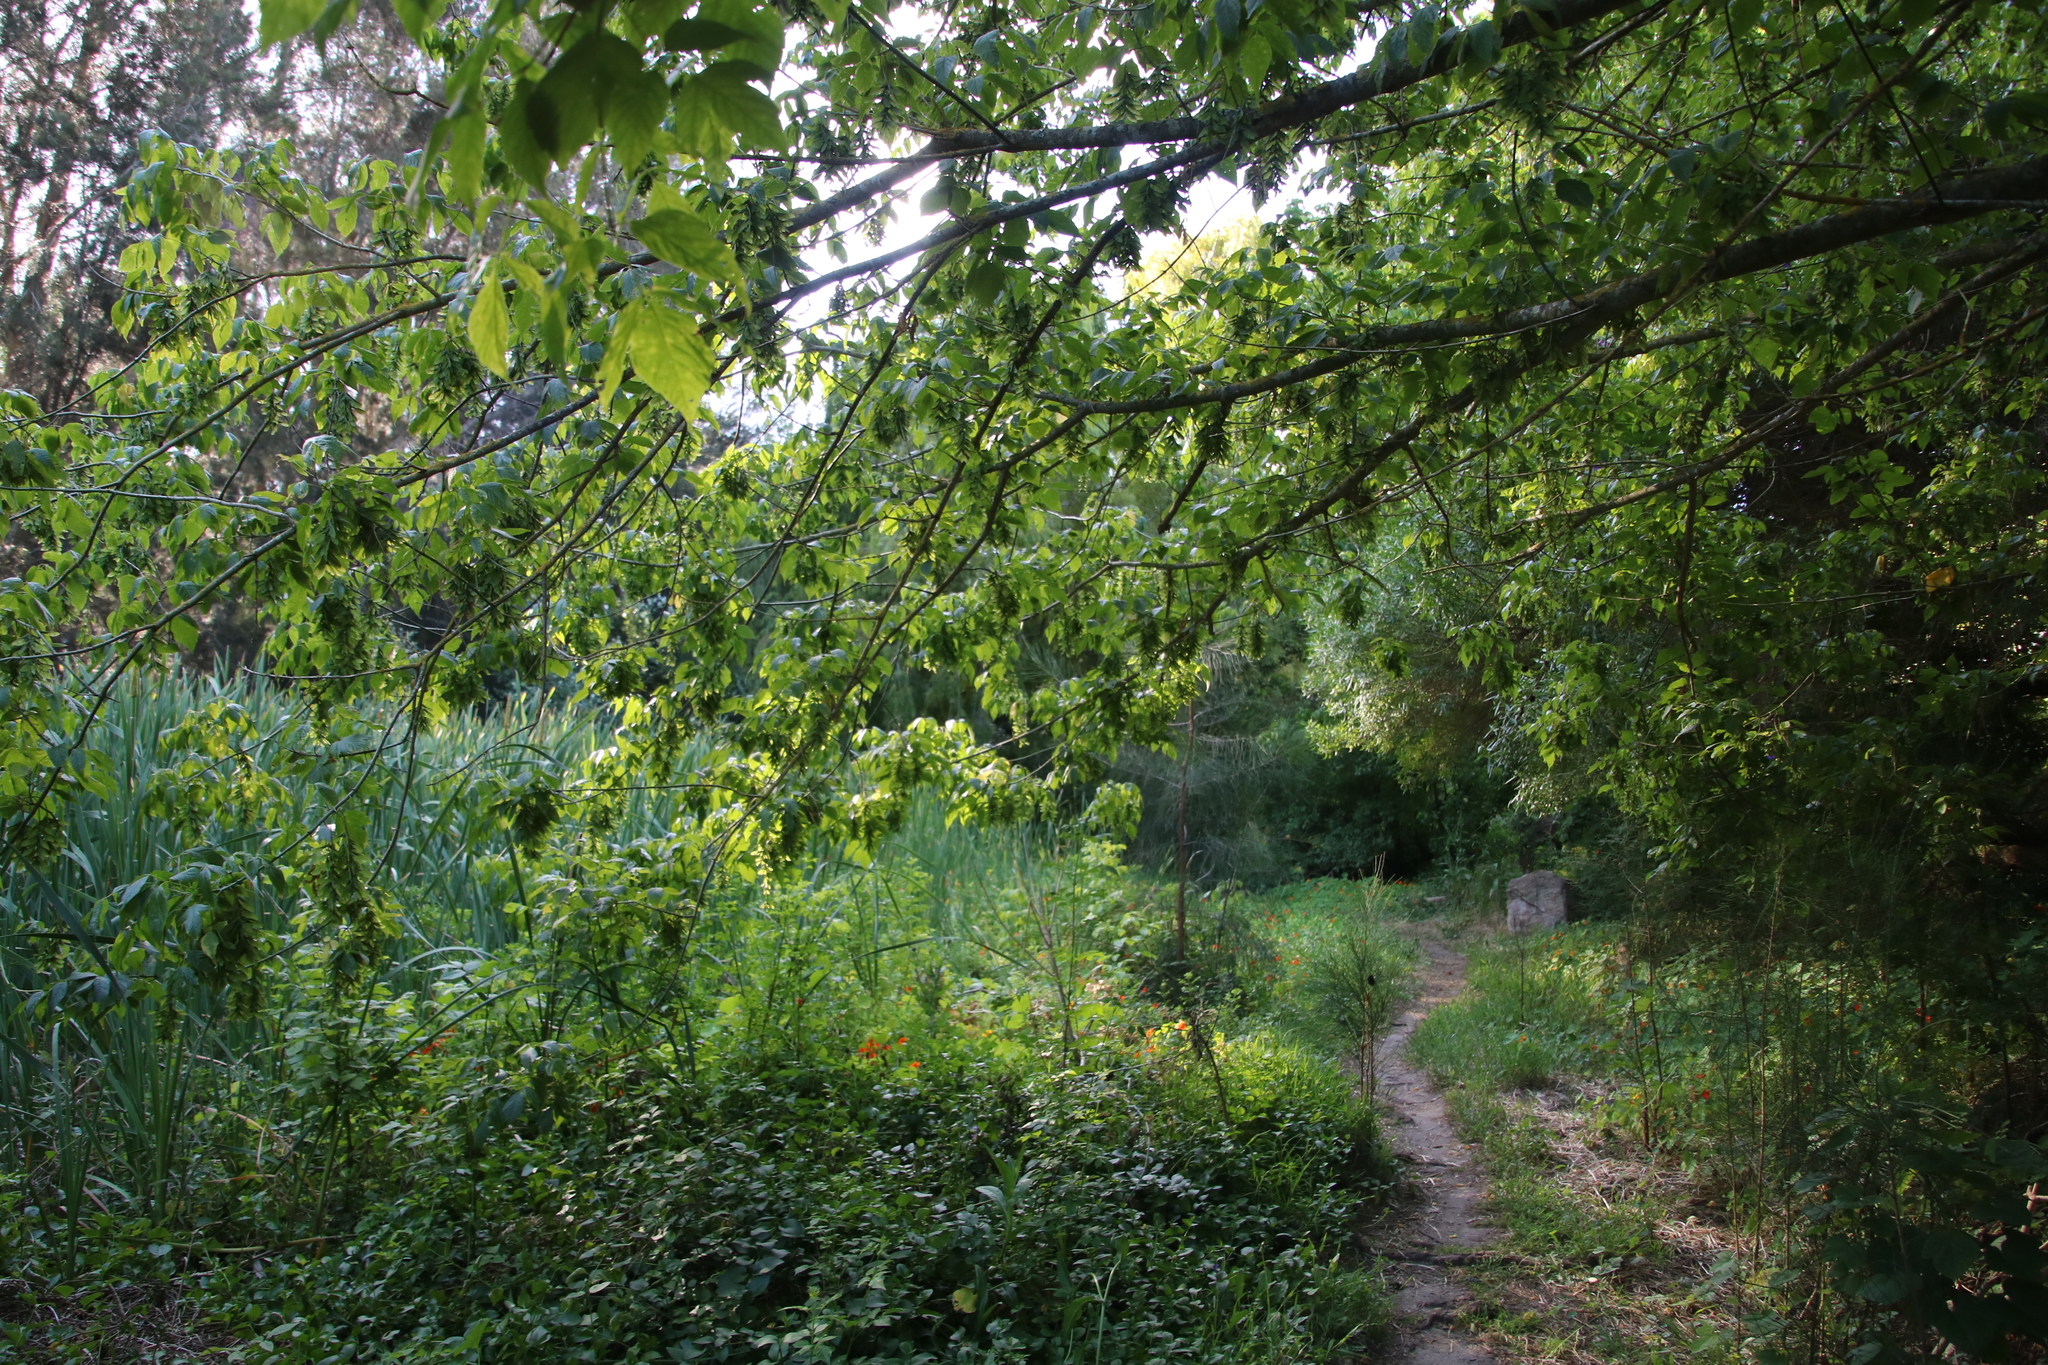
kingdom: Plantae
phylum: Tracheophyta
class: Magnoliopsida
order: Sapindales
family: Sapindaceae
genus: Acer
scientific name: Acer negundo
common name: Ashleaf maple
